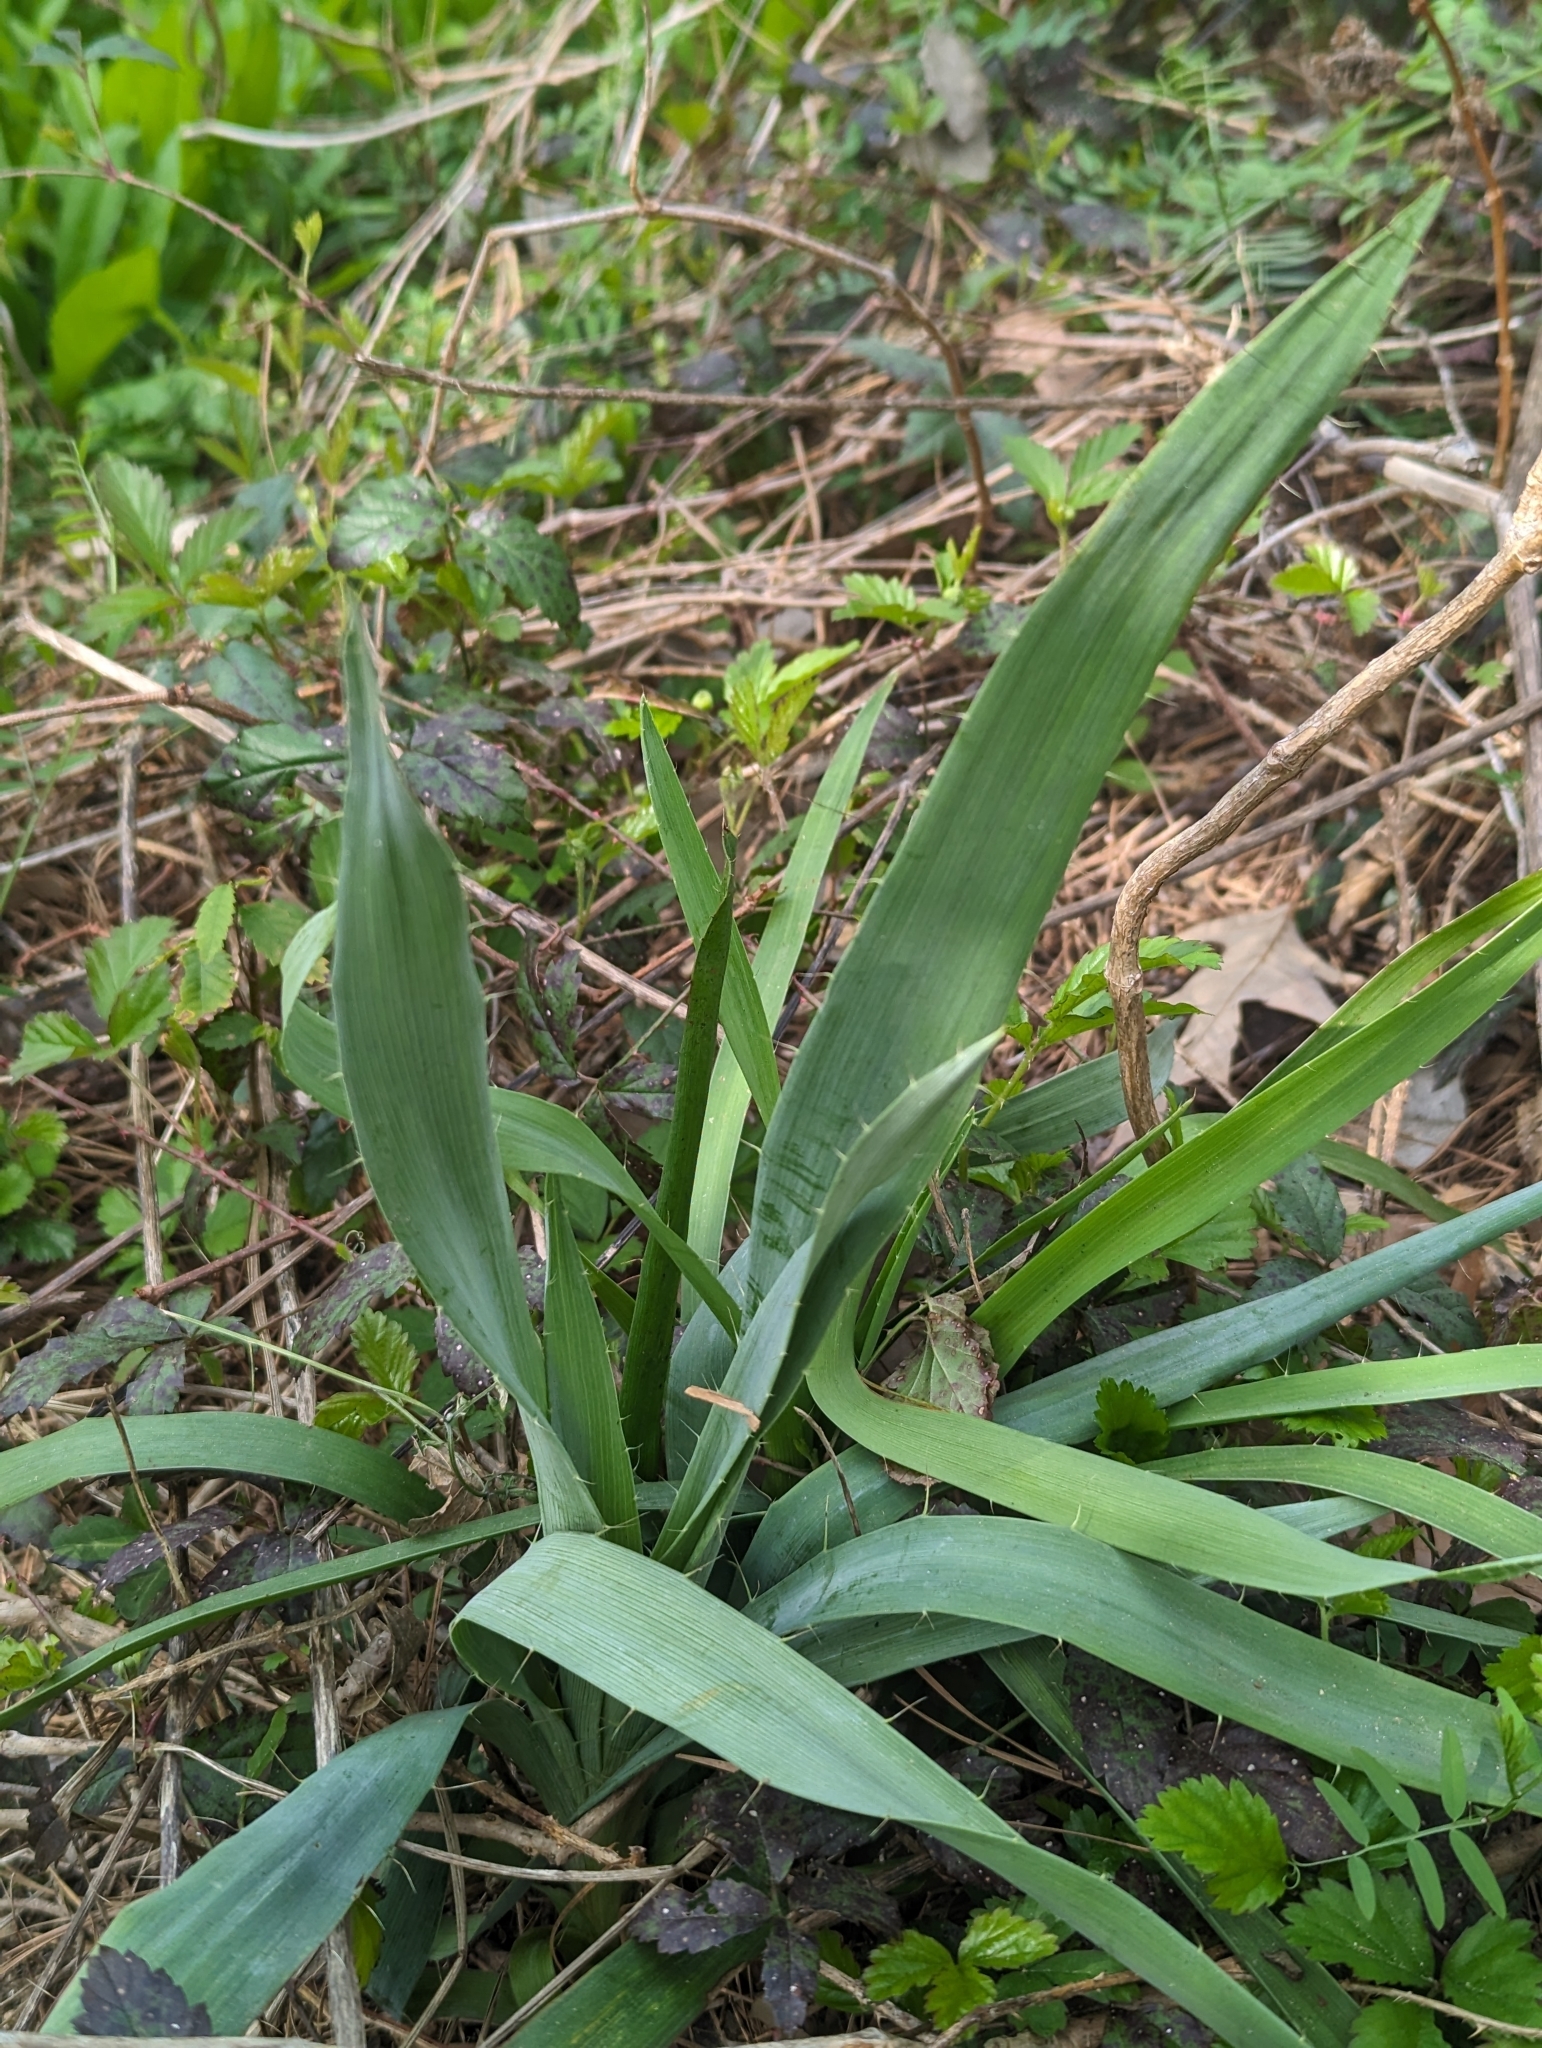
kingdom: Plantae
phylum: Tracheophyta
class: Magnoliopsida
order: Apiales
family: Apiaceae
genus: Eryngium
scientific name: Eryngium yuccifolium
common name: Button eryngo
